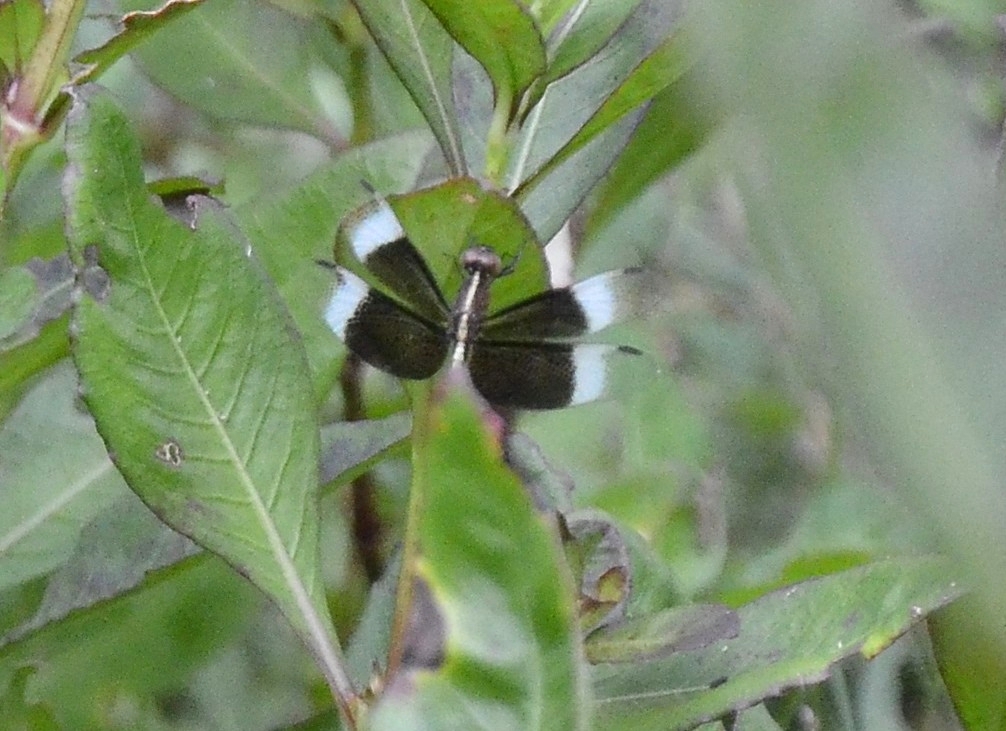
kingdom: Animalia
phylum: Arthropoda
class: Insecta
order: Odonata
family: Libellulidae
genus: Neurothemis
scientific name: Neurothemis tullia
